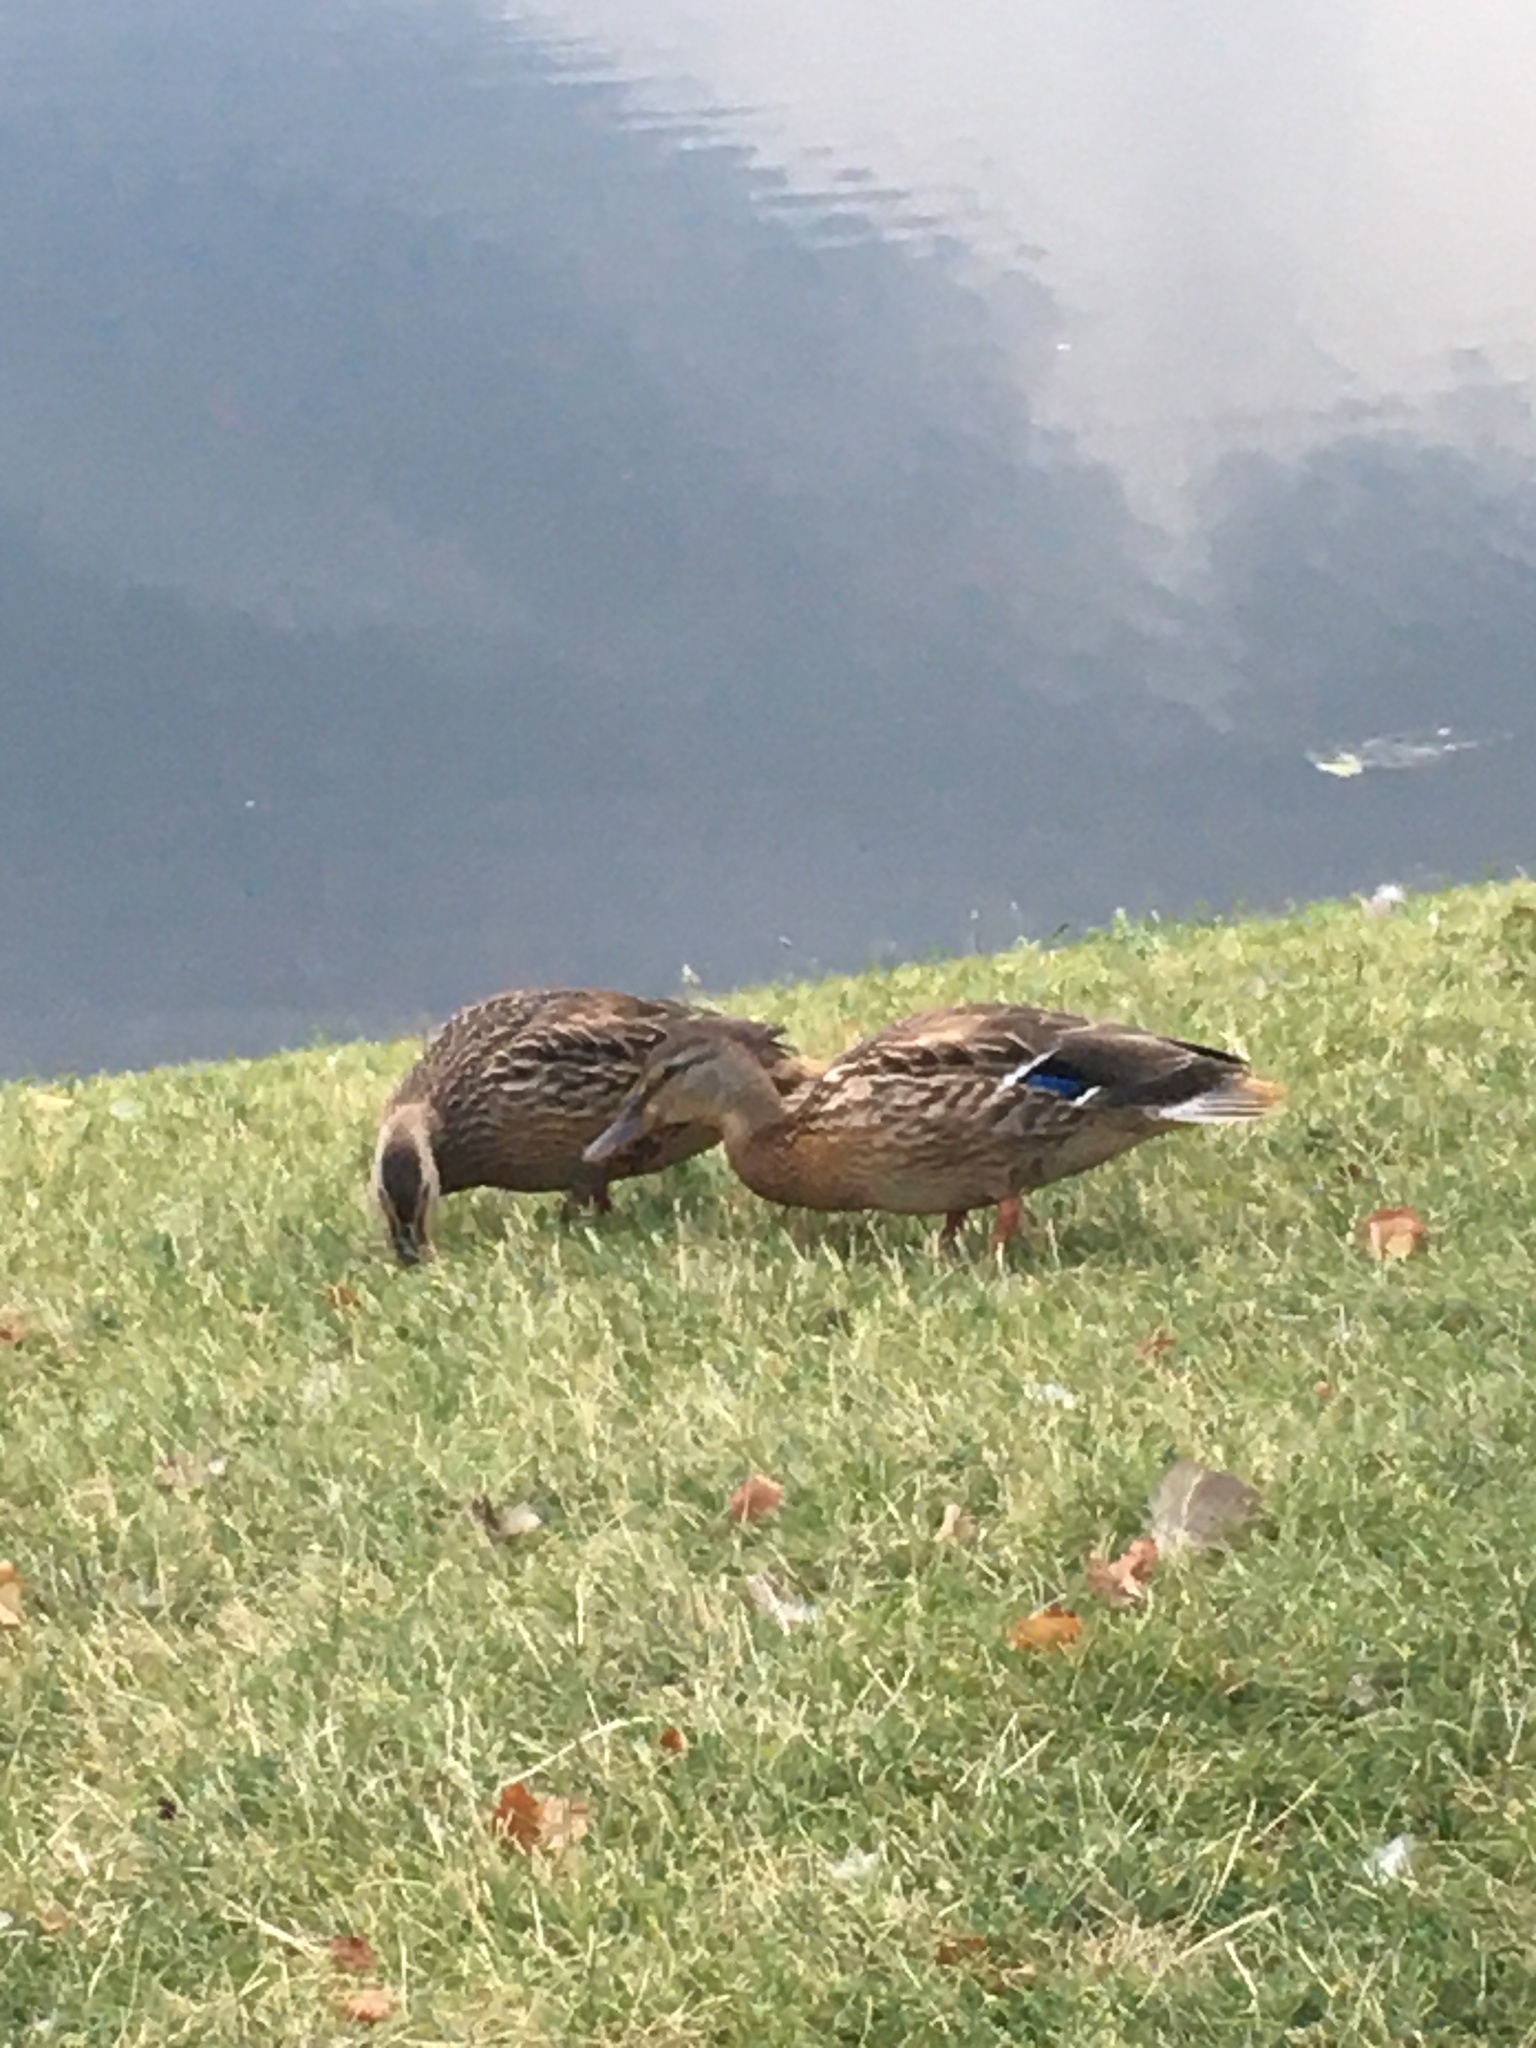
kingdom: Animalia
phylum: Chordata
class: Aves
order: Anseriformes
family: Anatidae
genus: Anas
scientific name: Anas platyrhynchos
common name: Mallard
